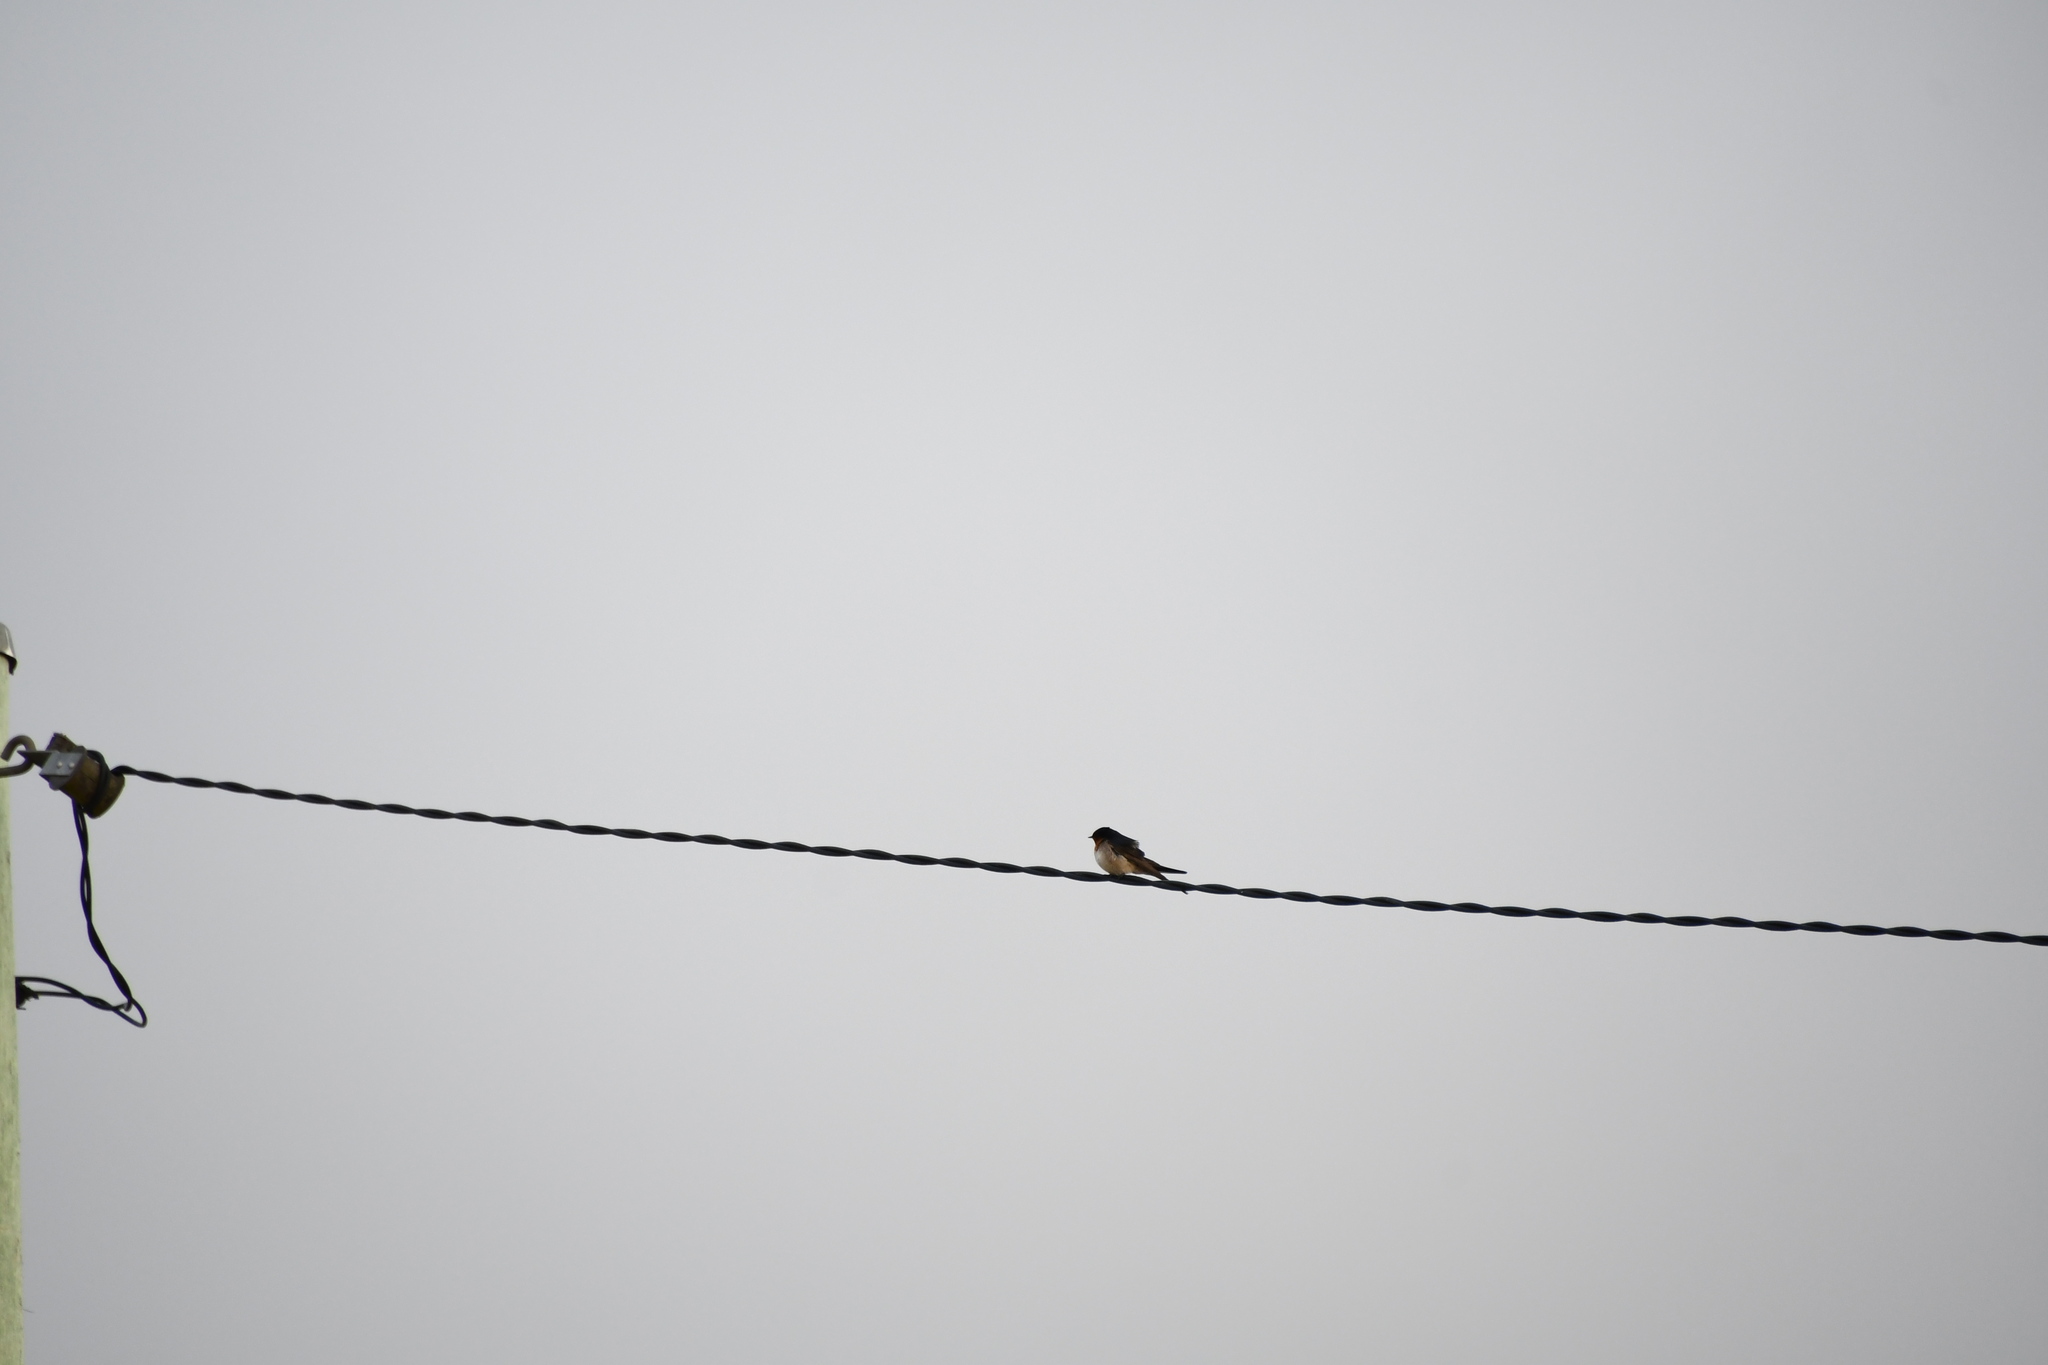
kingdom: Animalia
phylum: Chordata
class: Aves
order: Passeriformes
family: Hirundinidae
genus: Hirundo
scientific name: Hirundo neoxena
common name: Welcome swallow
